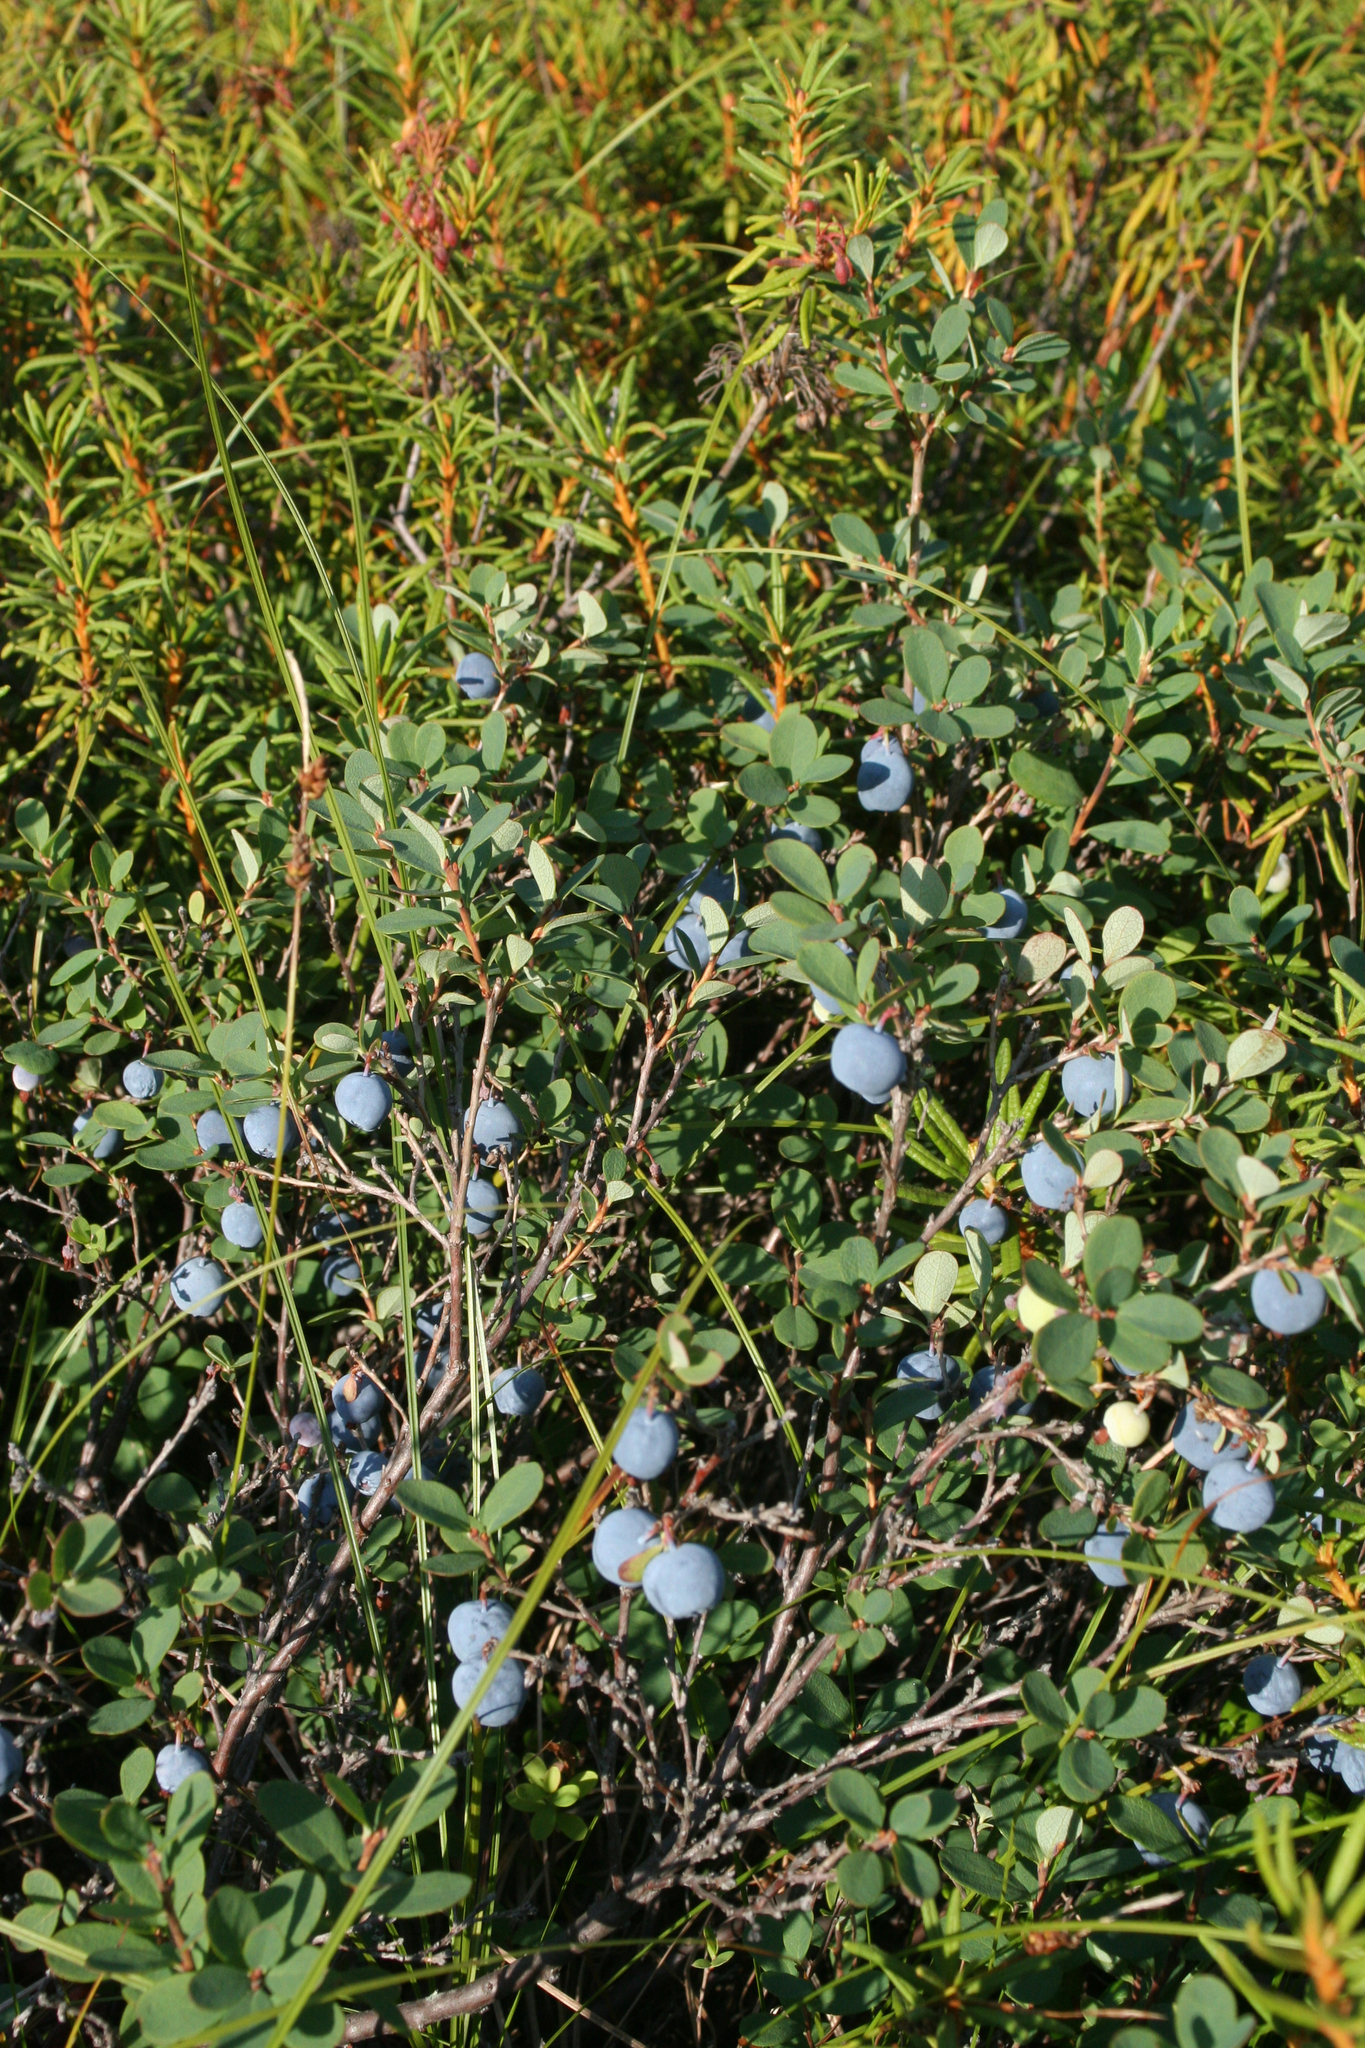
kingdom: Plantae
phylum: Tracheophyta
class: Magnoliopsida
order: Ericales
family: Ericaceae
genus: Vaccinium
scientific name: Vaccinium uliginosum
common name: Bog bilberry
